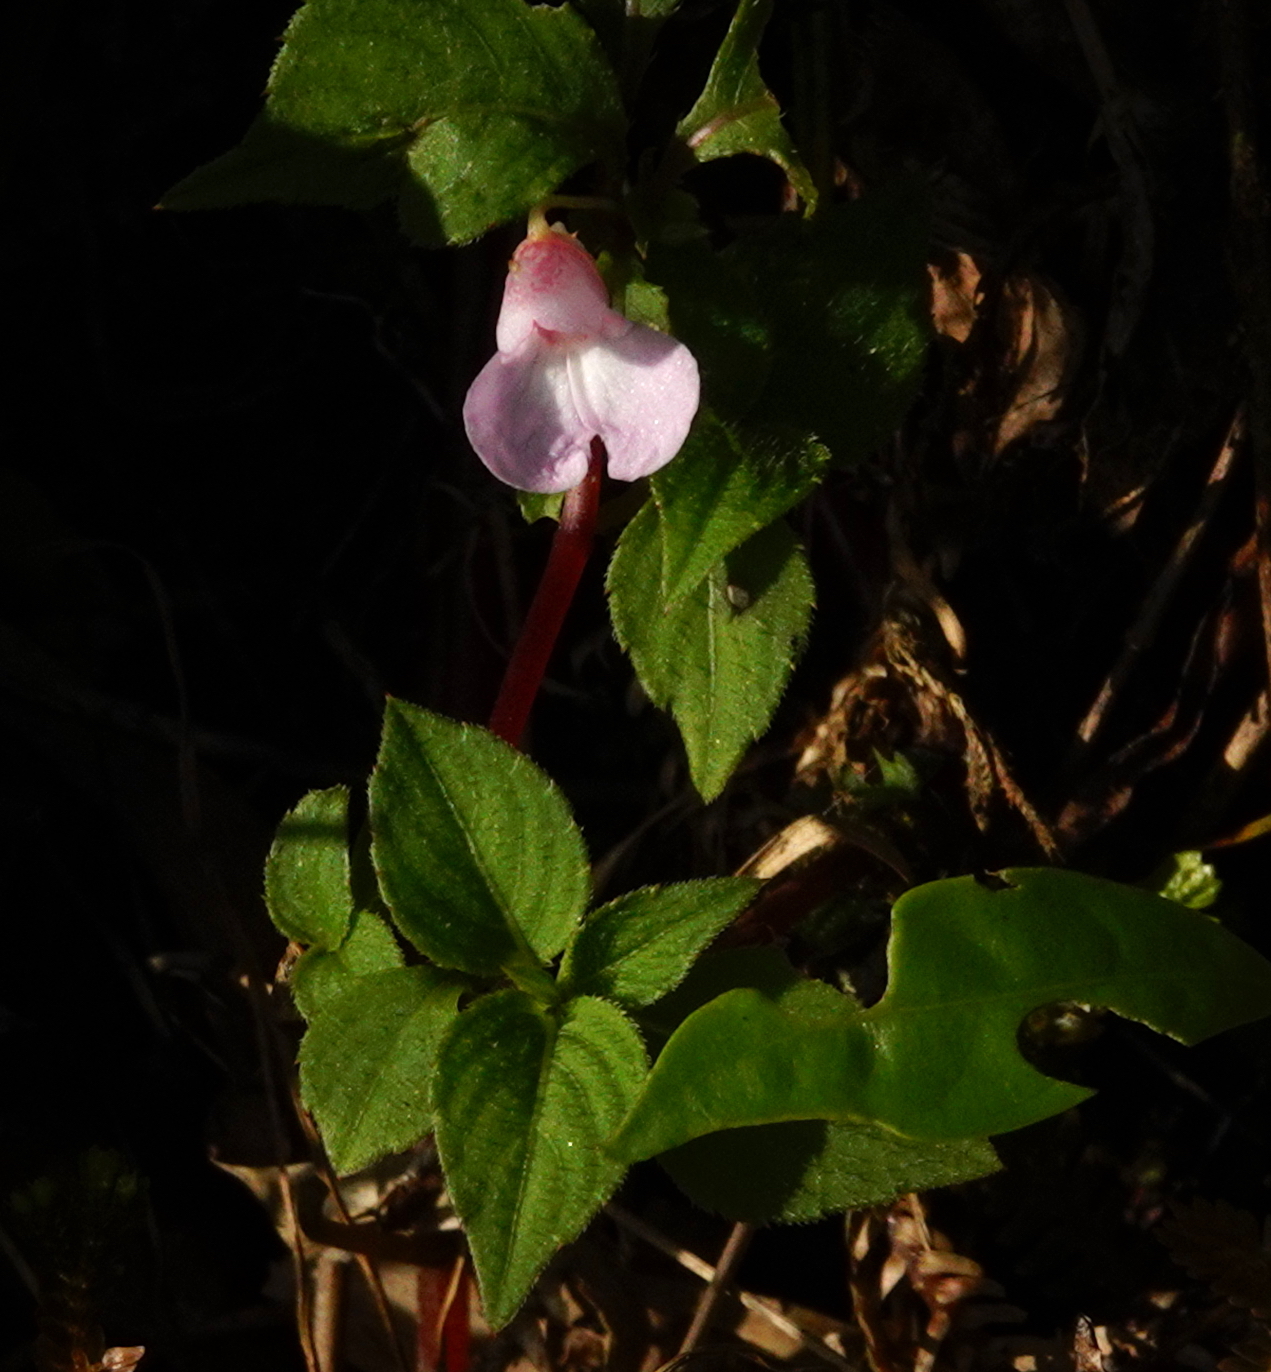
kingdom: Plantae
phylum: Tracheophyta
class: Magnoliopsida
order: Ericales
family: Balsaminaceae
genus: Impatiens
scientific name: Impatiens truncata
